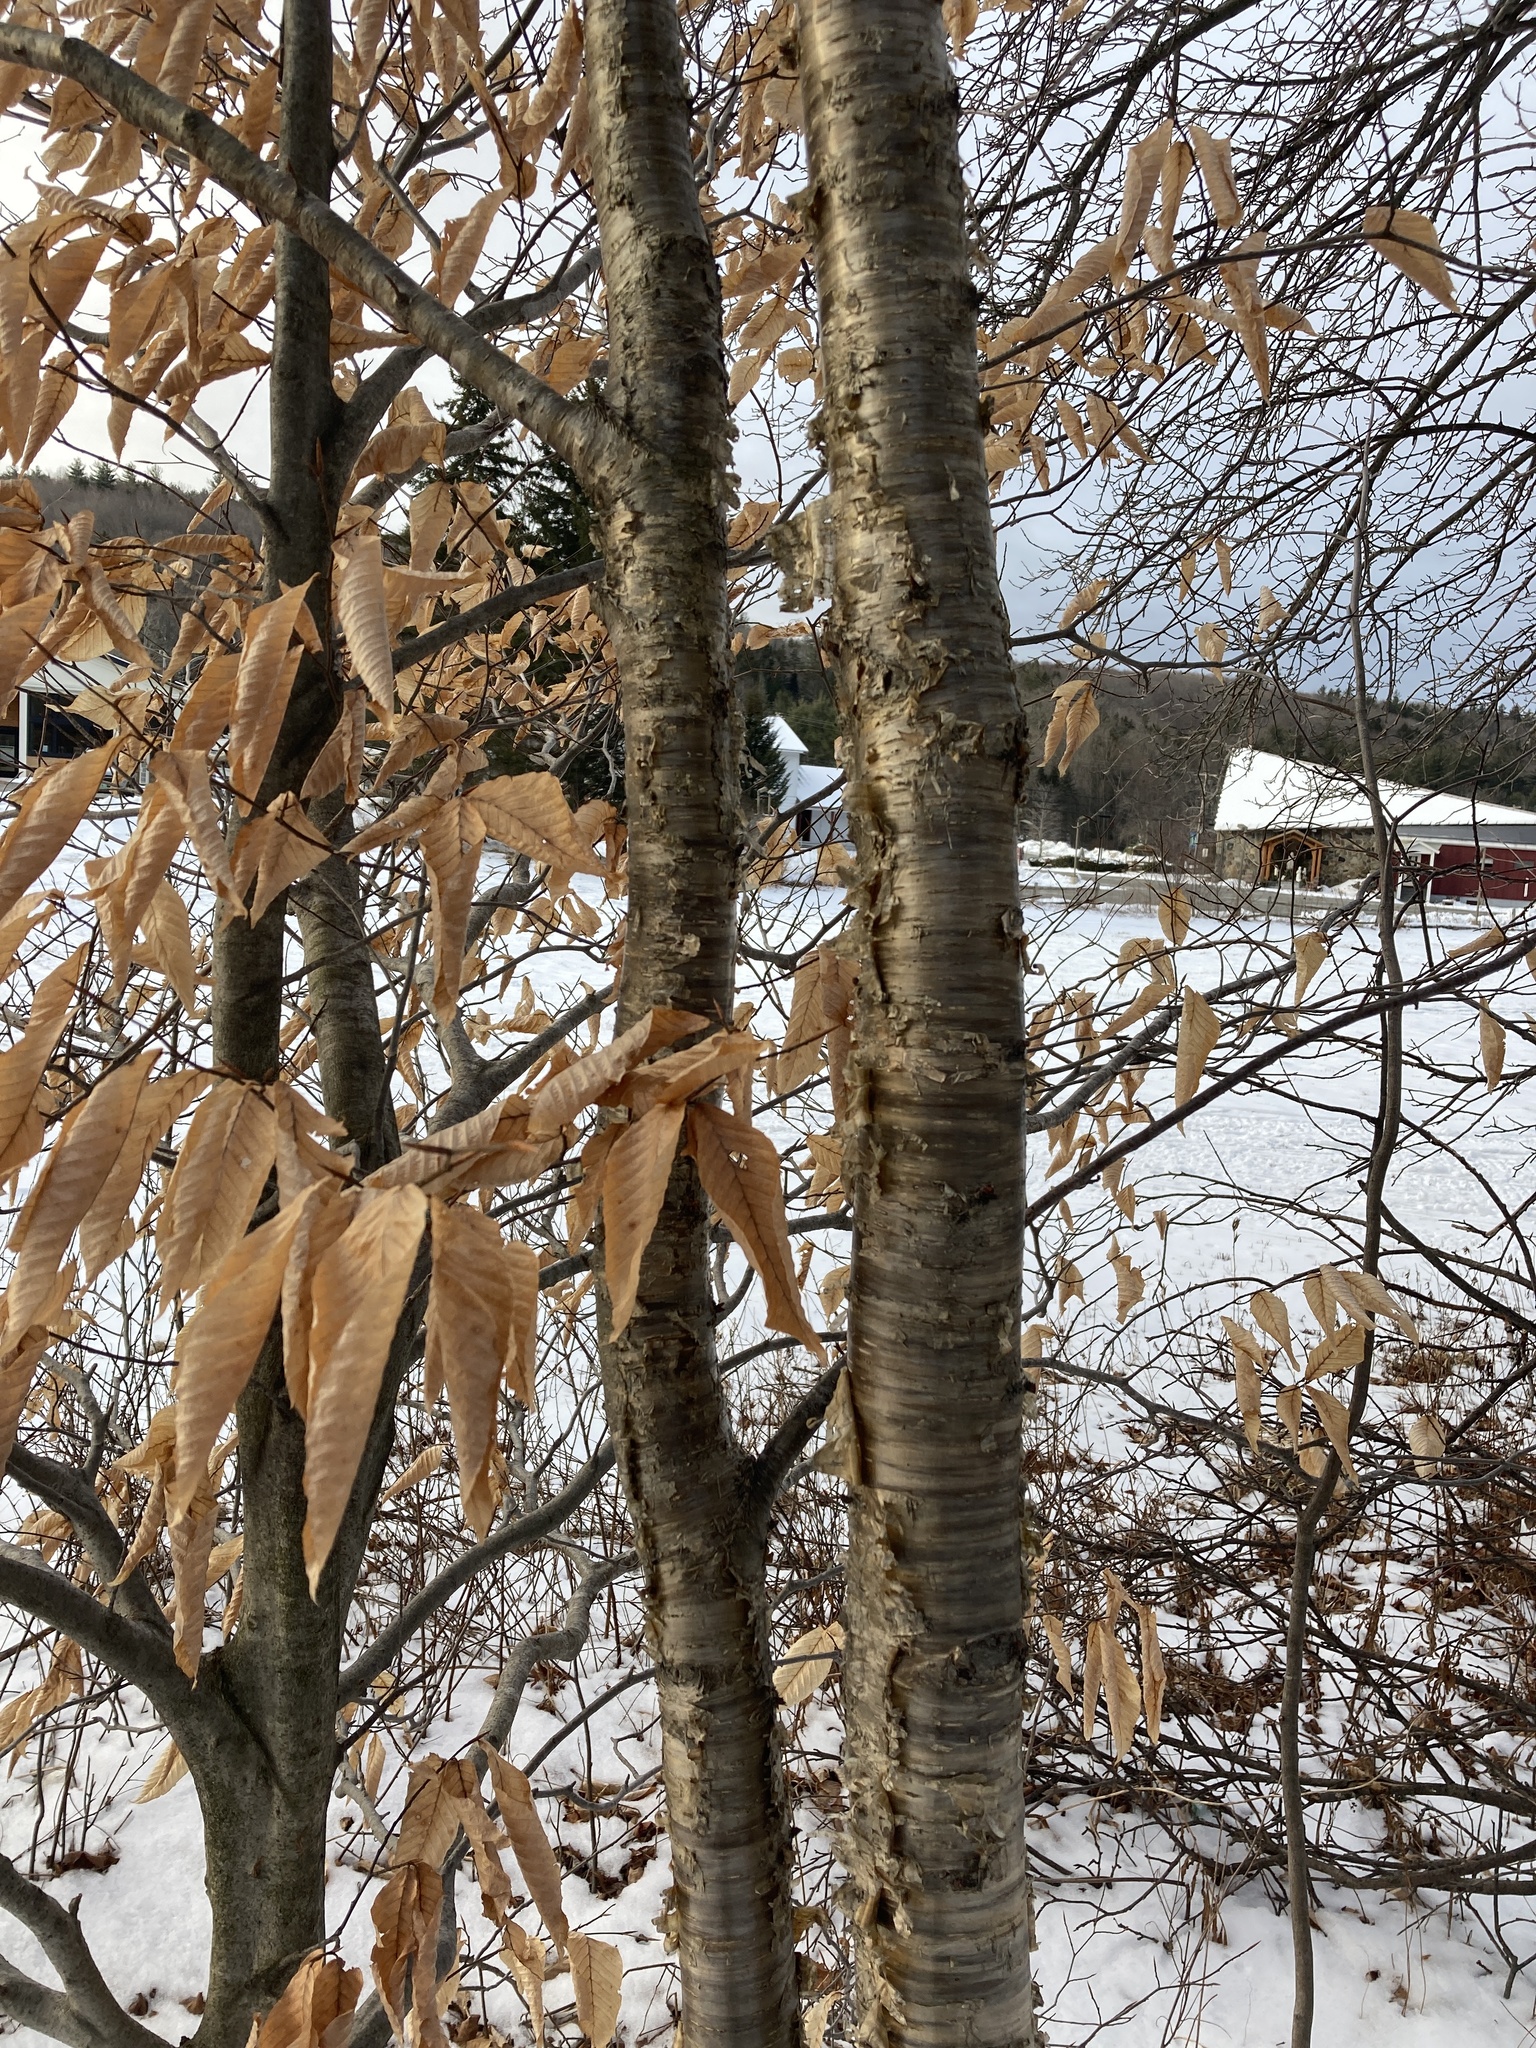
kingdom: Plantae
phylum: Tracheophyta
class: Magnoliopsida
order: Fagales
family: Betulaceae
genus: Betula
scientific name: Betula alleghaniensis
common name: Yellow birch
